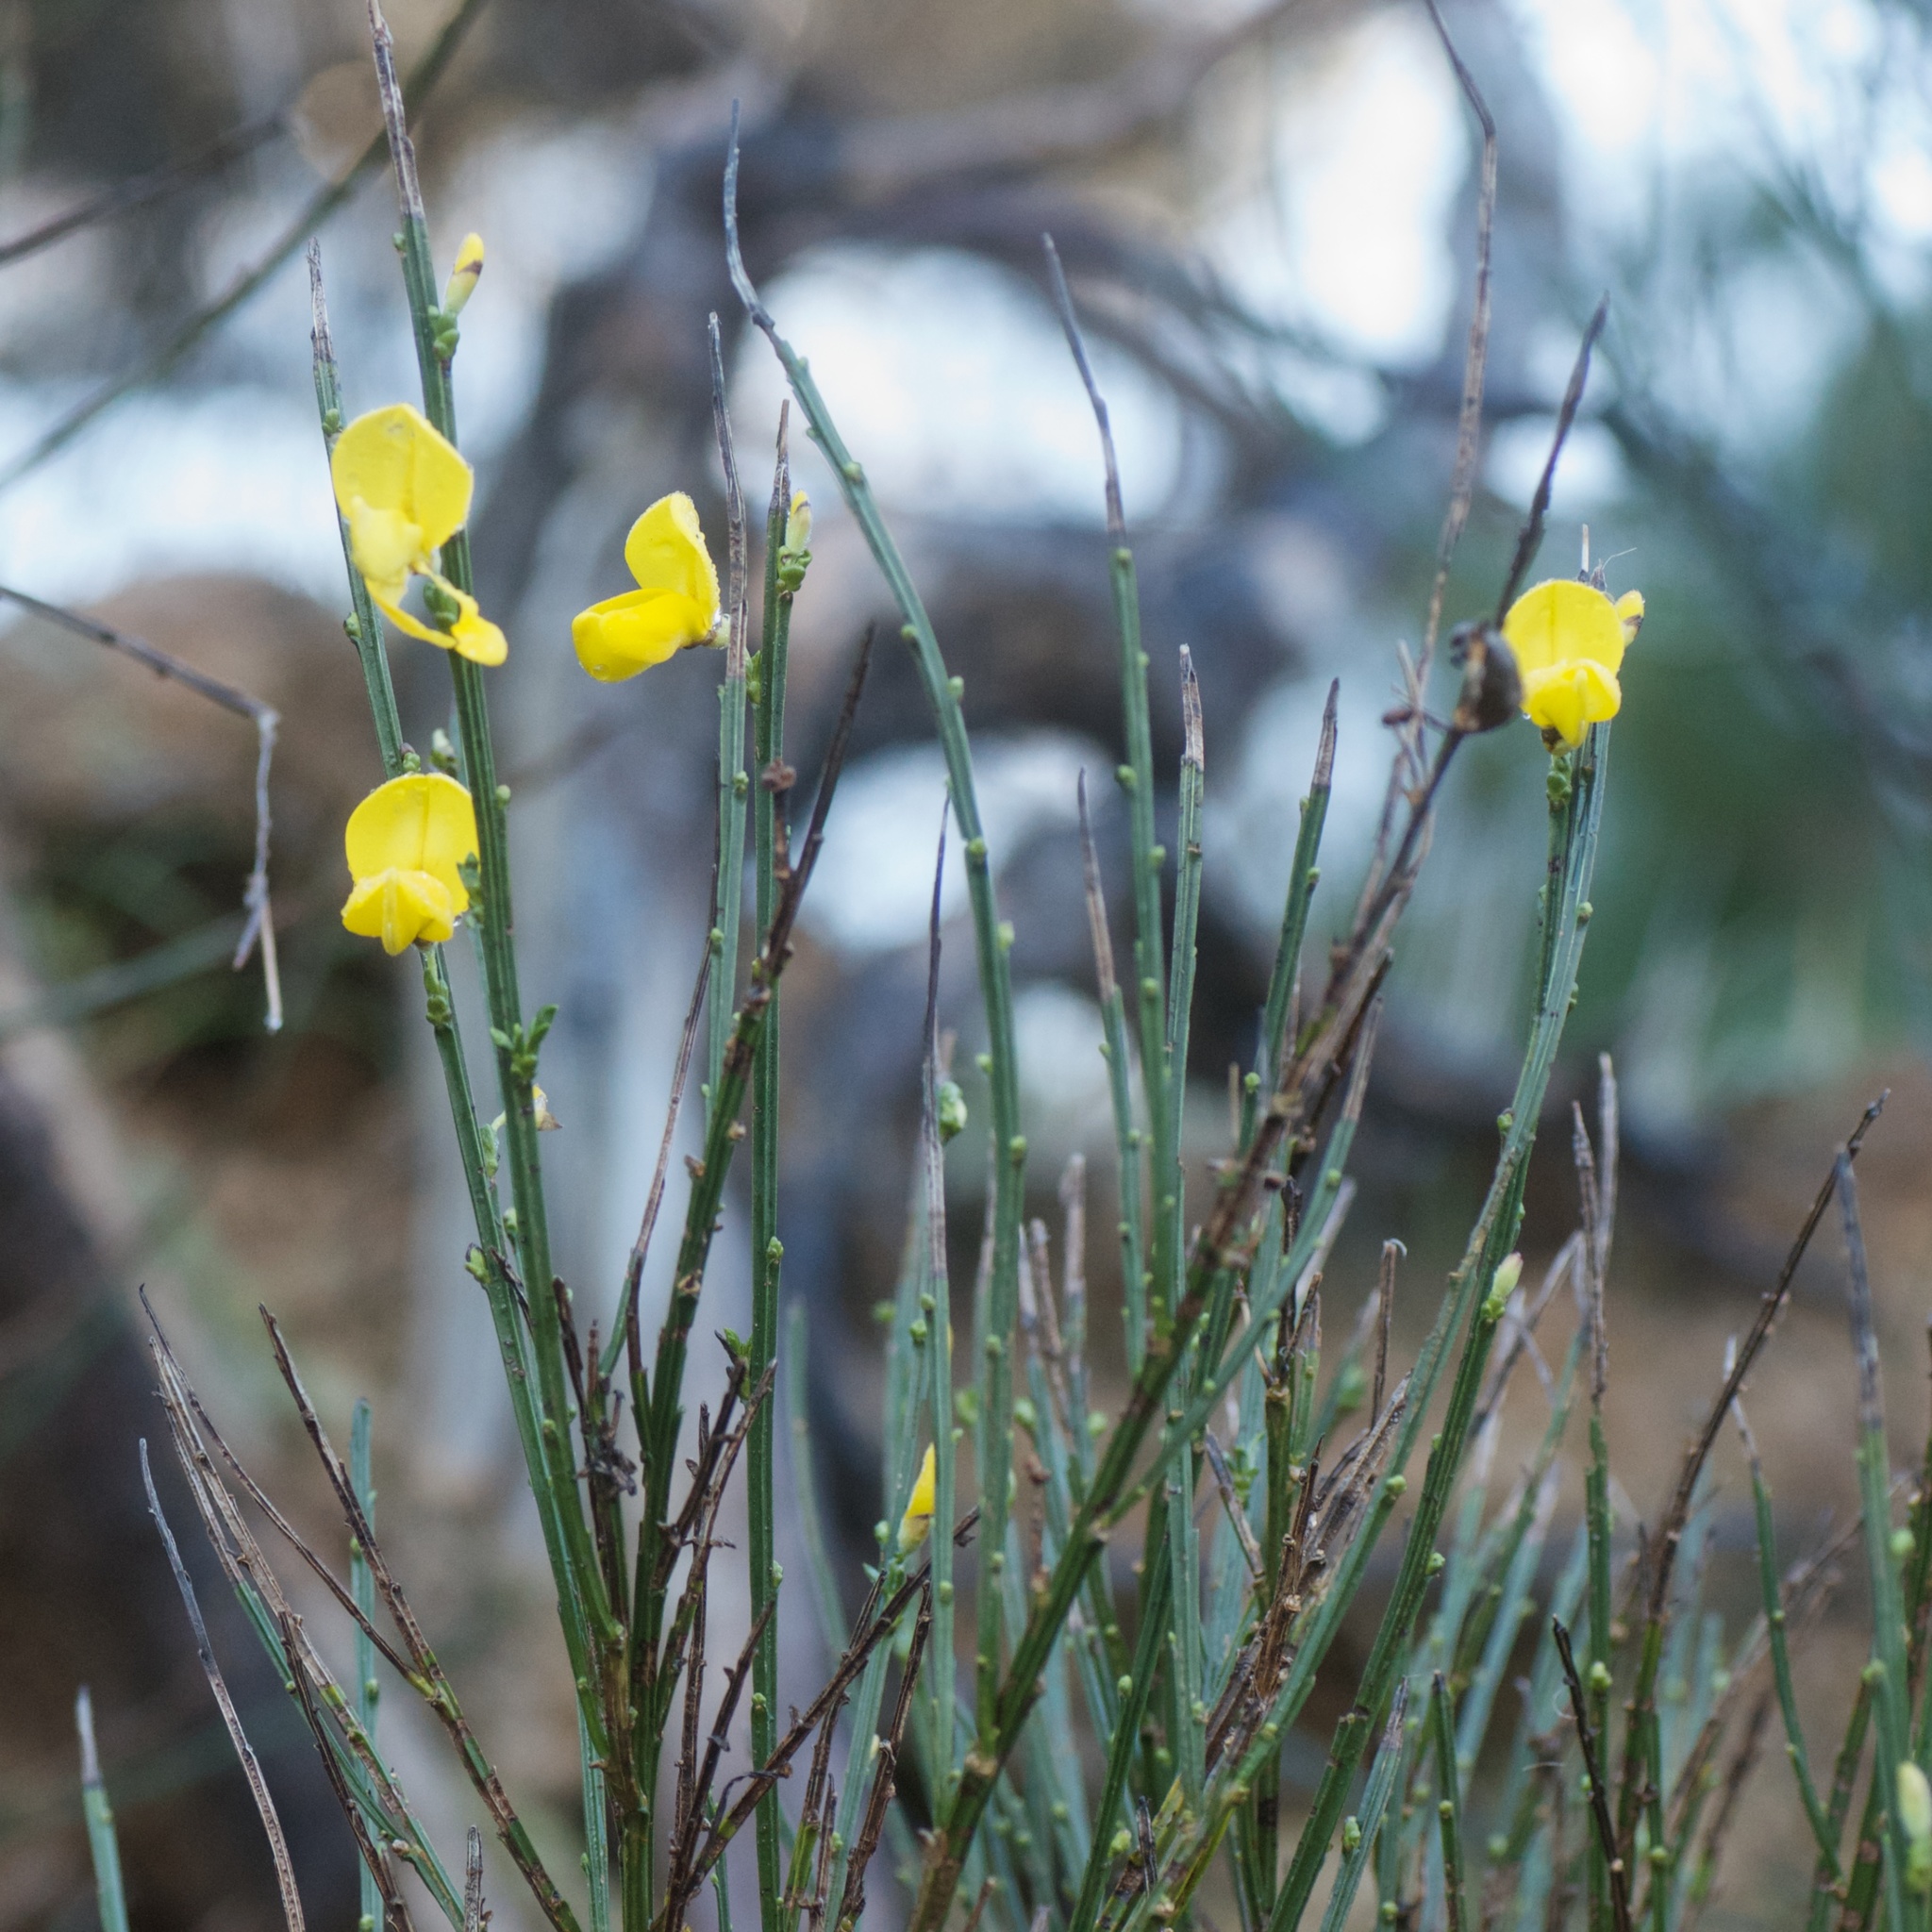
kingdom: Plantae
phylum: Tracheophyta
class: Magnoliopsida
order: Fabales
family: Fabaceae
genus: Cytisus
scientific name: Cytisus scoparius
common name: Scotch broom
